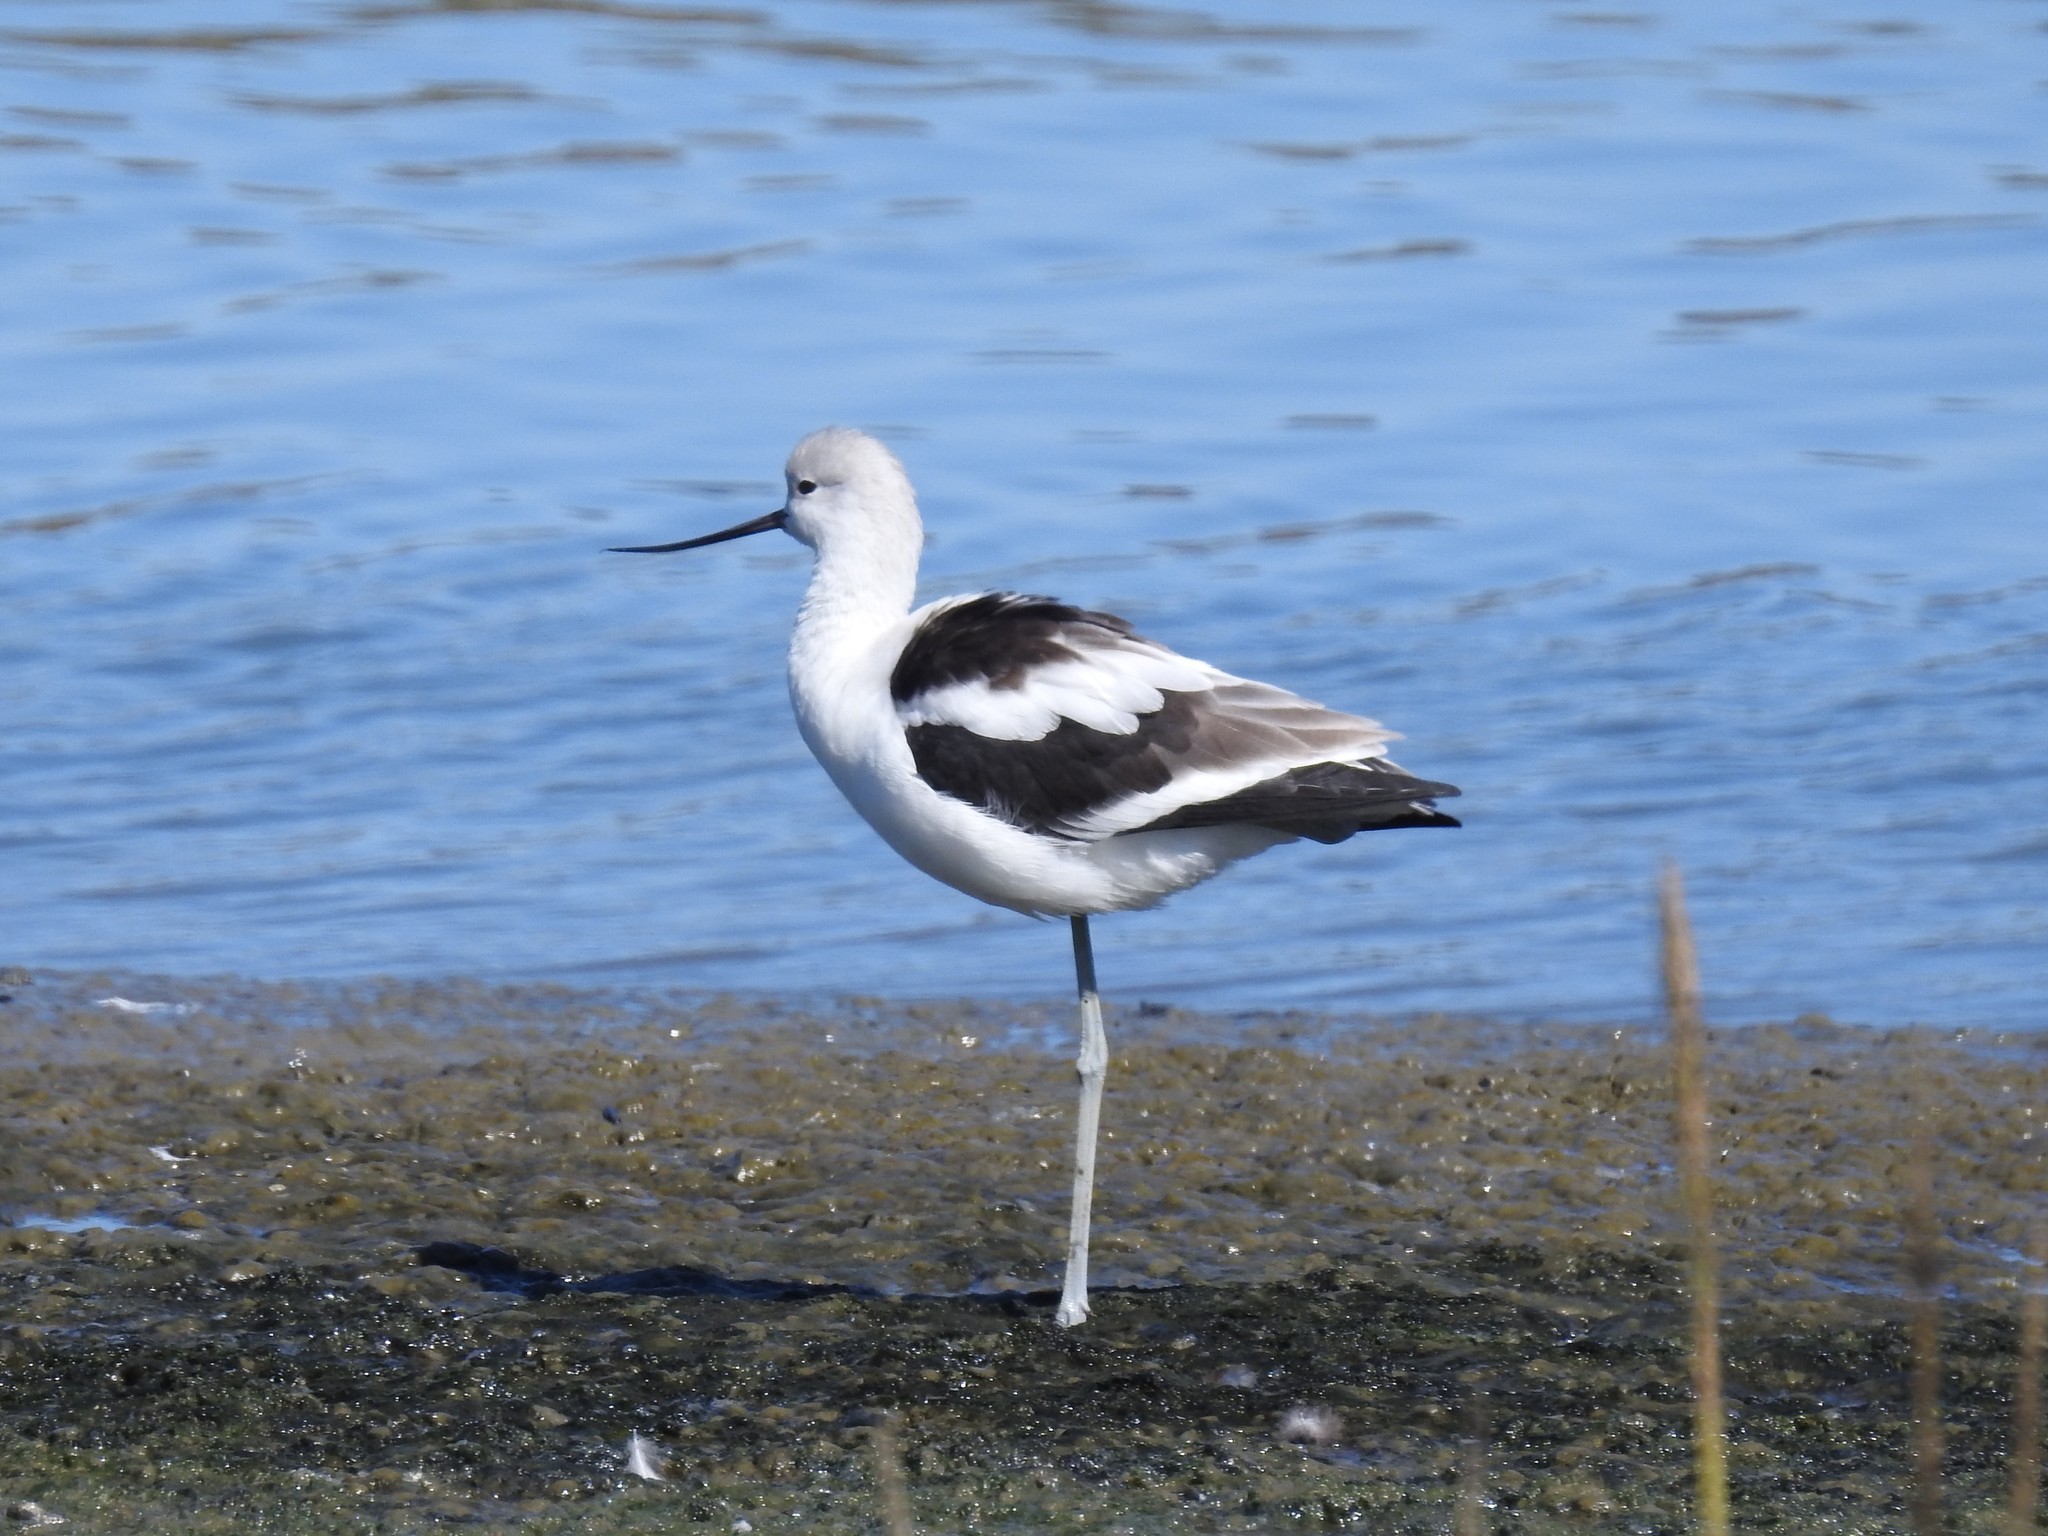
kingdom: Animalia
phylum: Chordata
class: Aves
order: Charadriiformes
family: Recurvirostridae
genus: Recurvirostra
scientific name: Recurvirostra americana
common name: American avocet
